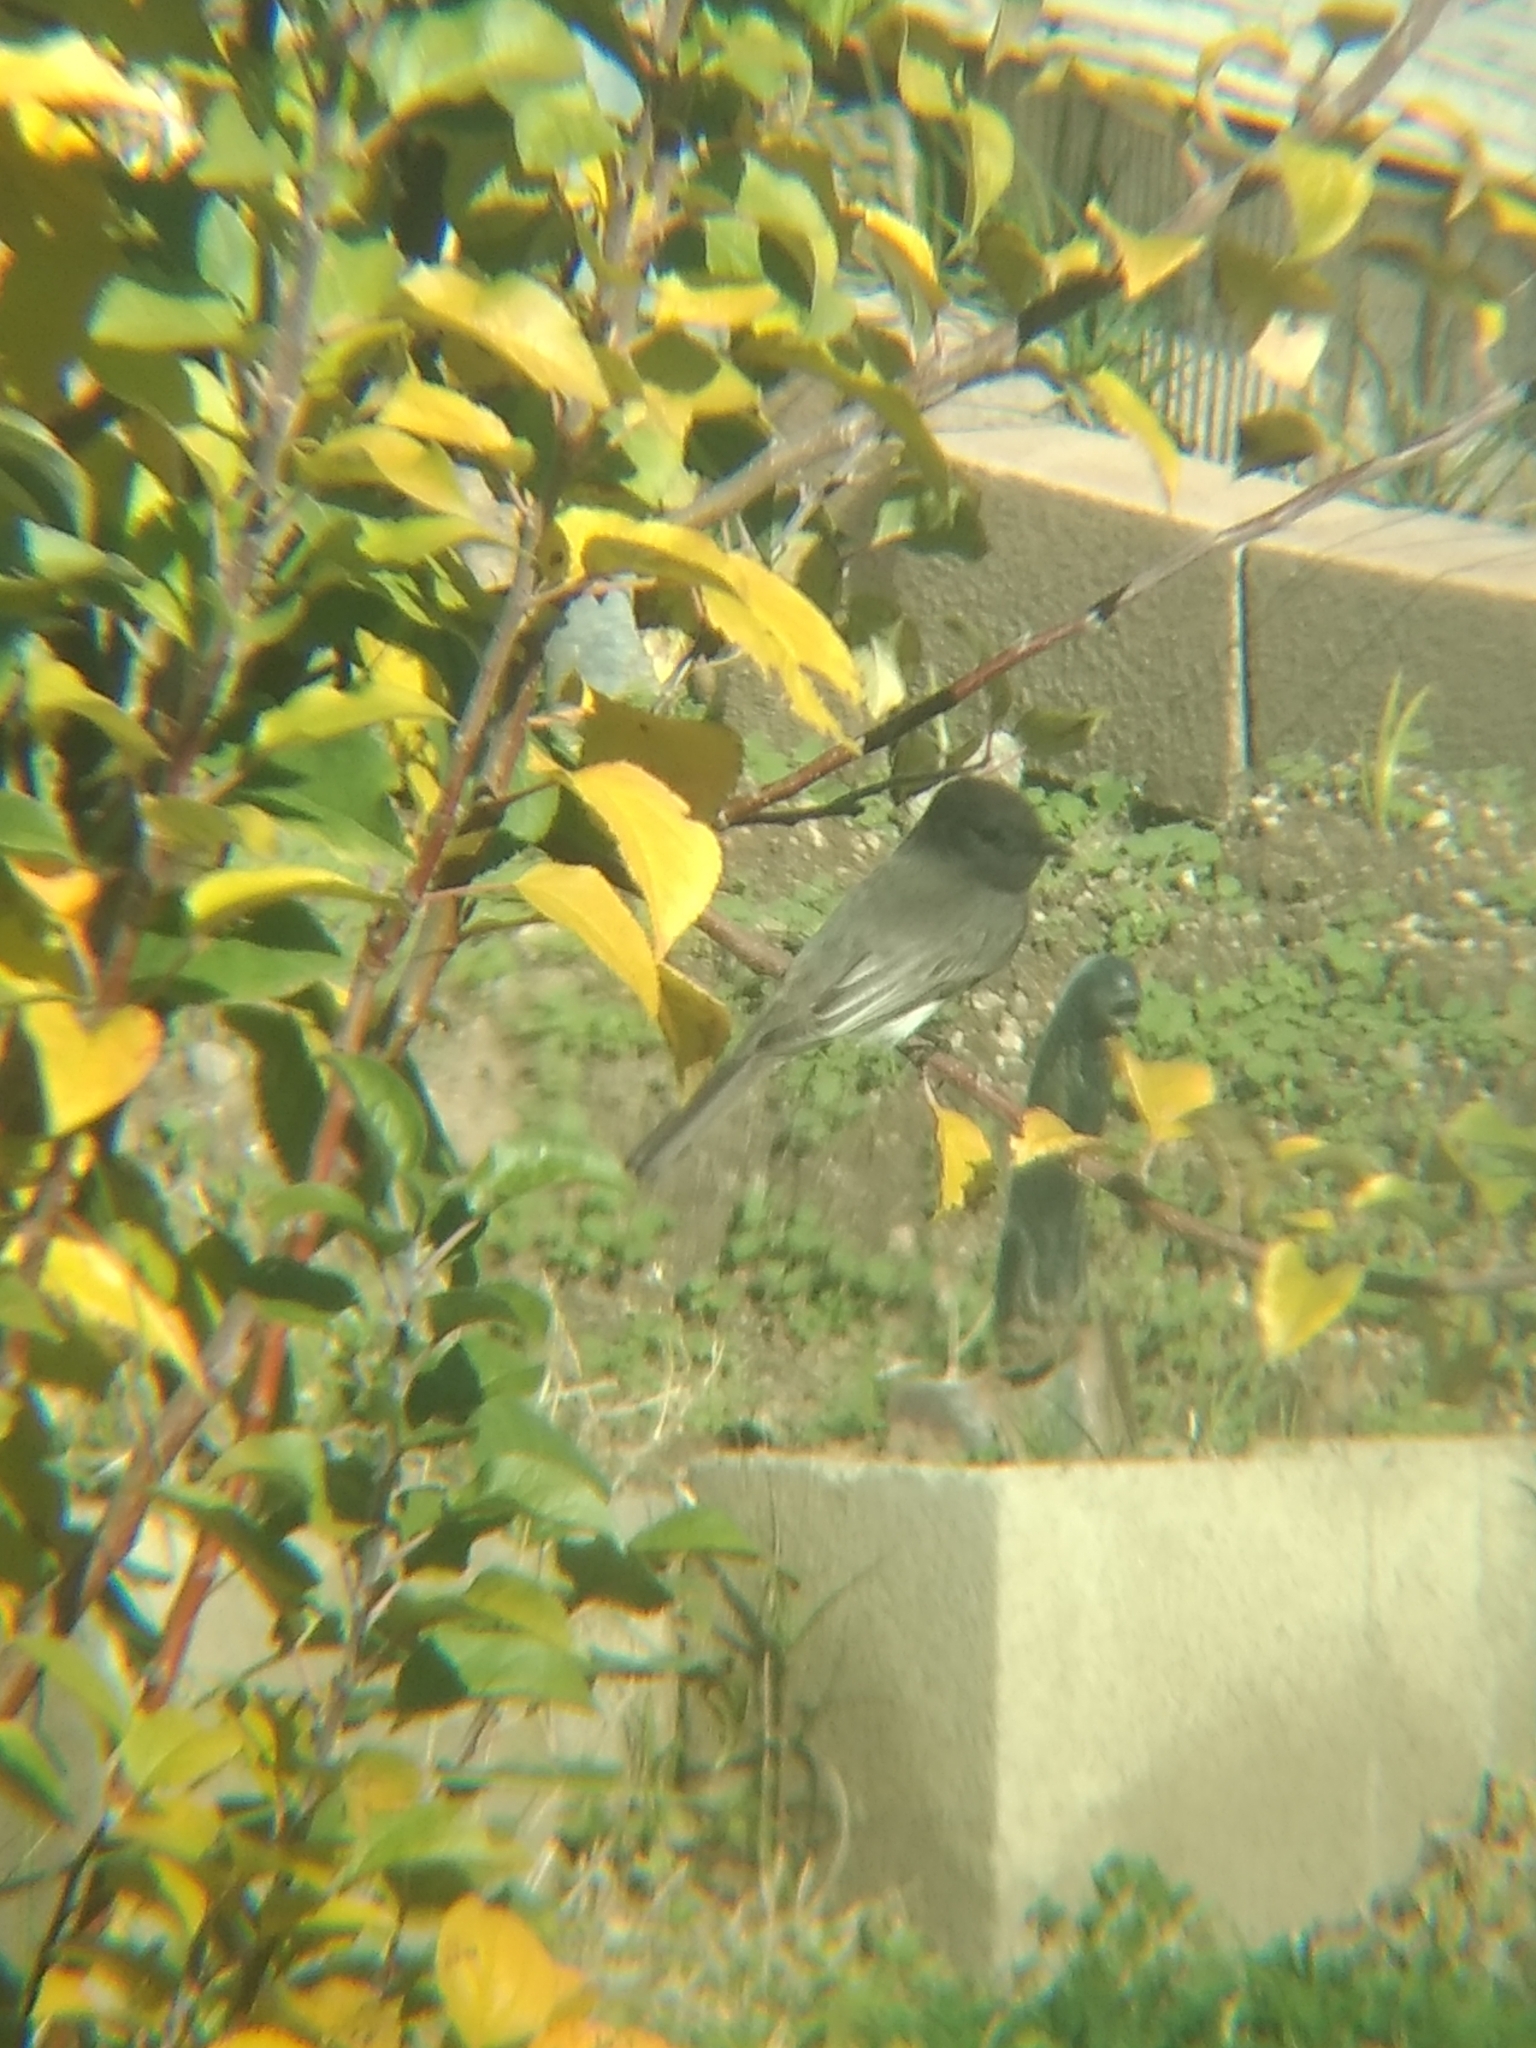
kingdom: Animalia
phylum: Chordata
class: Aves
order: Passeriformes
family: Tyrannidae
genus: Sayornis
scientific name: Sayornis nigricans
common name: Black phoebe
